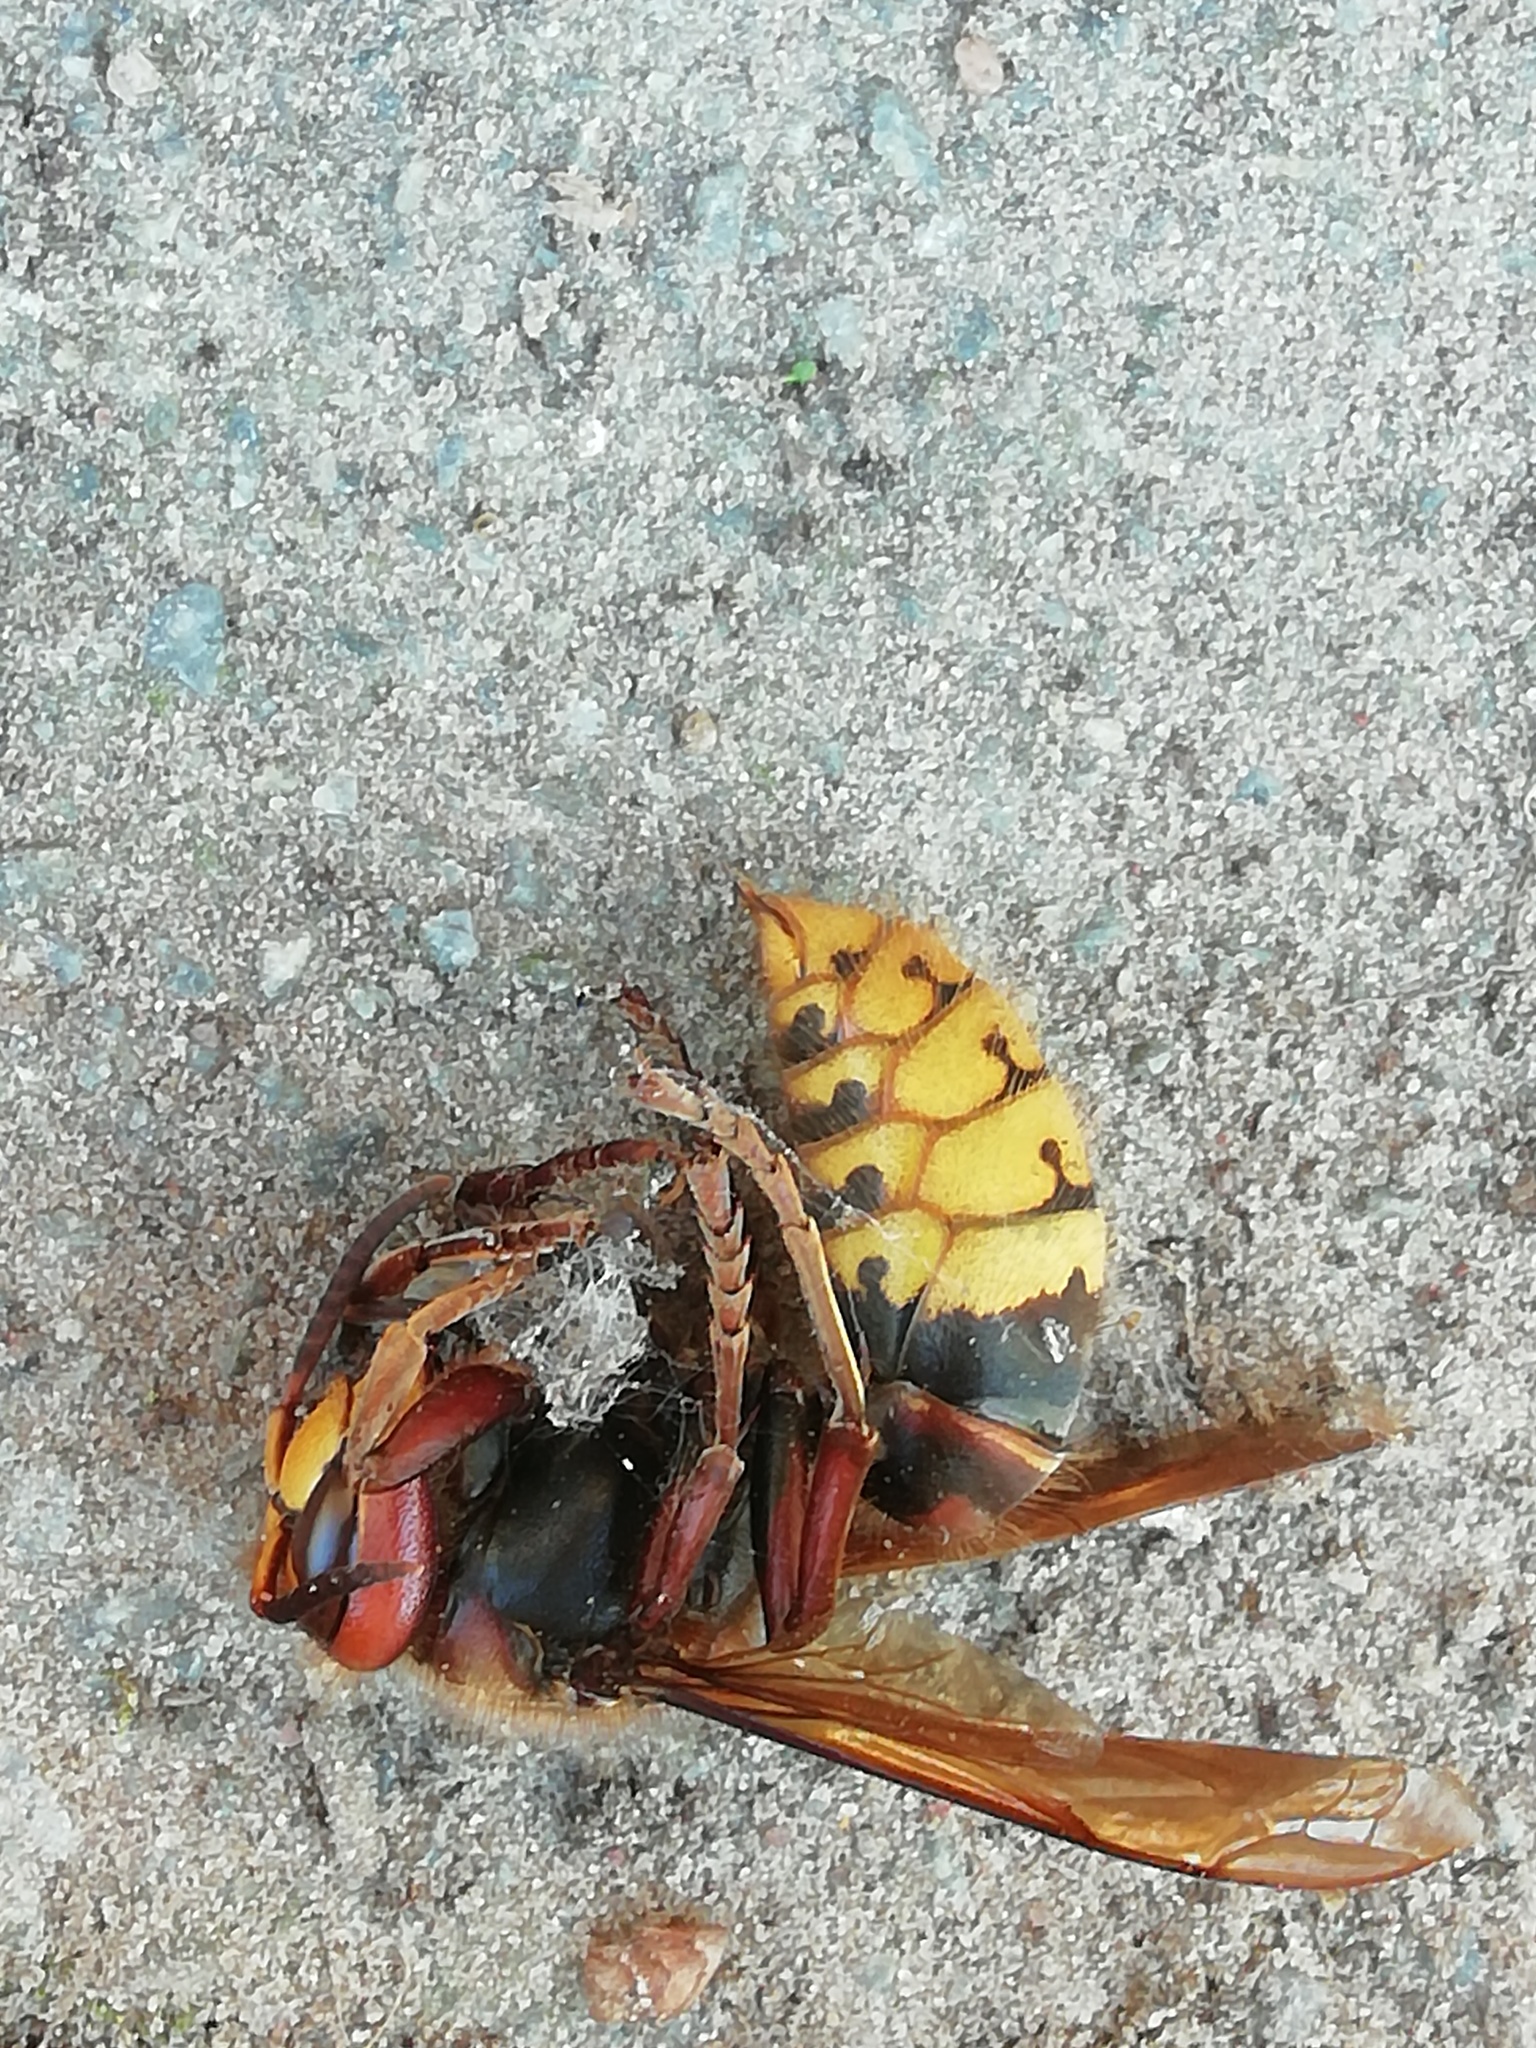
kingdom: Animalia
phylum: Arthropoda
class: Insecta
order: Hymenoptera
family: Vespidae
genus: Vespa
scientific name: Vespa crabro
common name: Hornet
